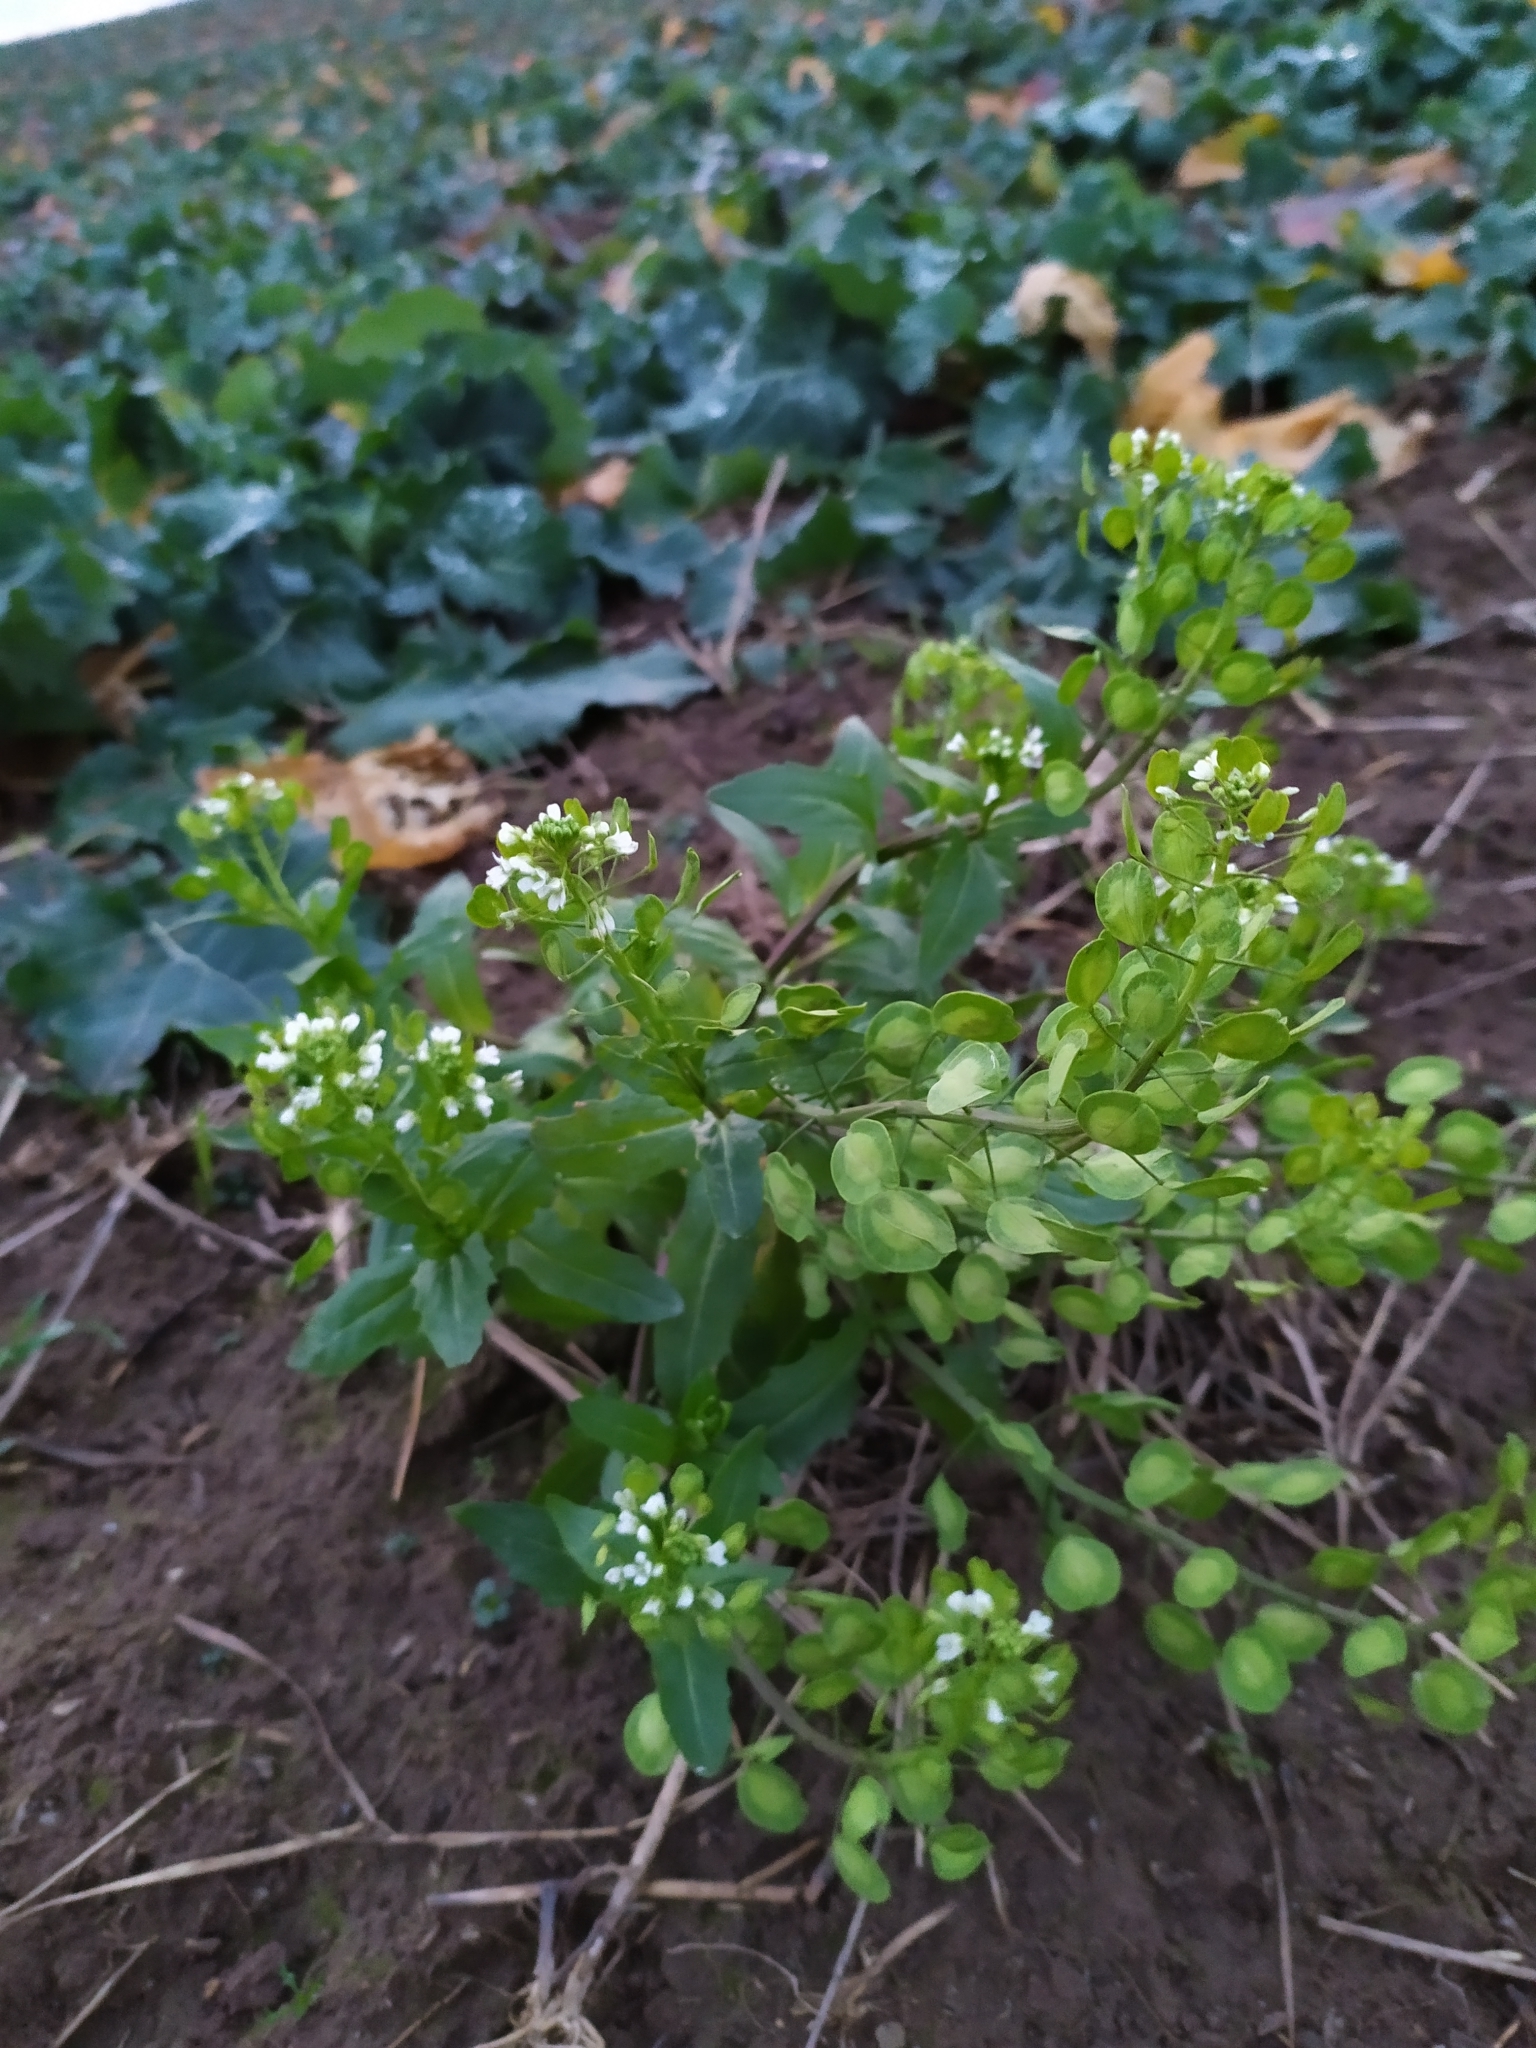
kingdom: Plantae
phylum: Tracheophyta
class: Magnoliopsida
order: Brassicales
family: Brassicaceae
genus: Thlaspi
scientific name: Thlaspi arvense
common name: Field pennycress
